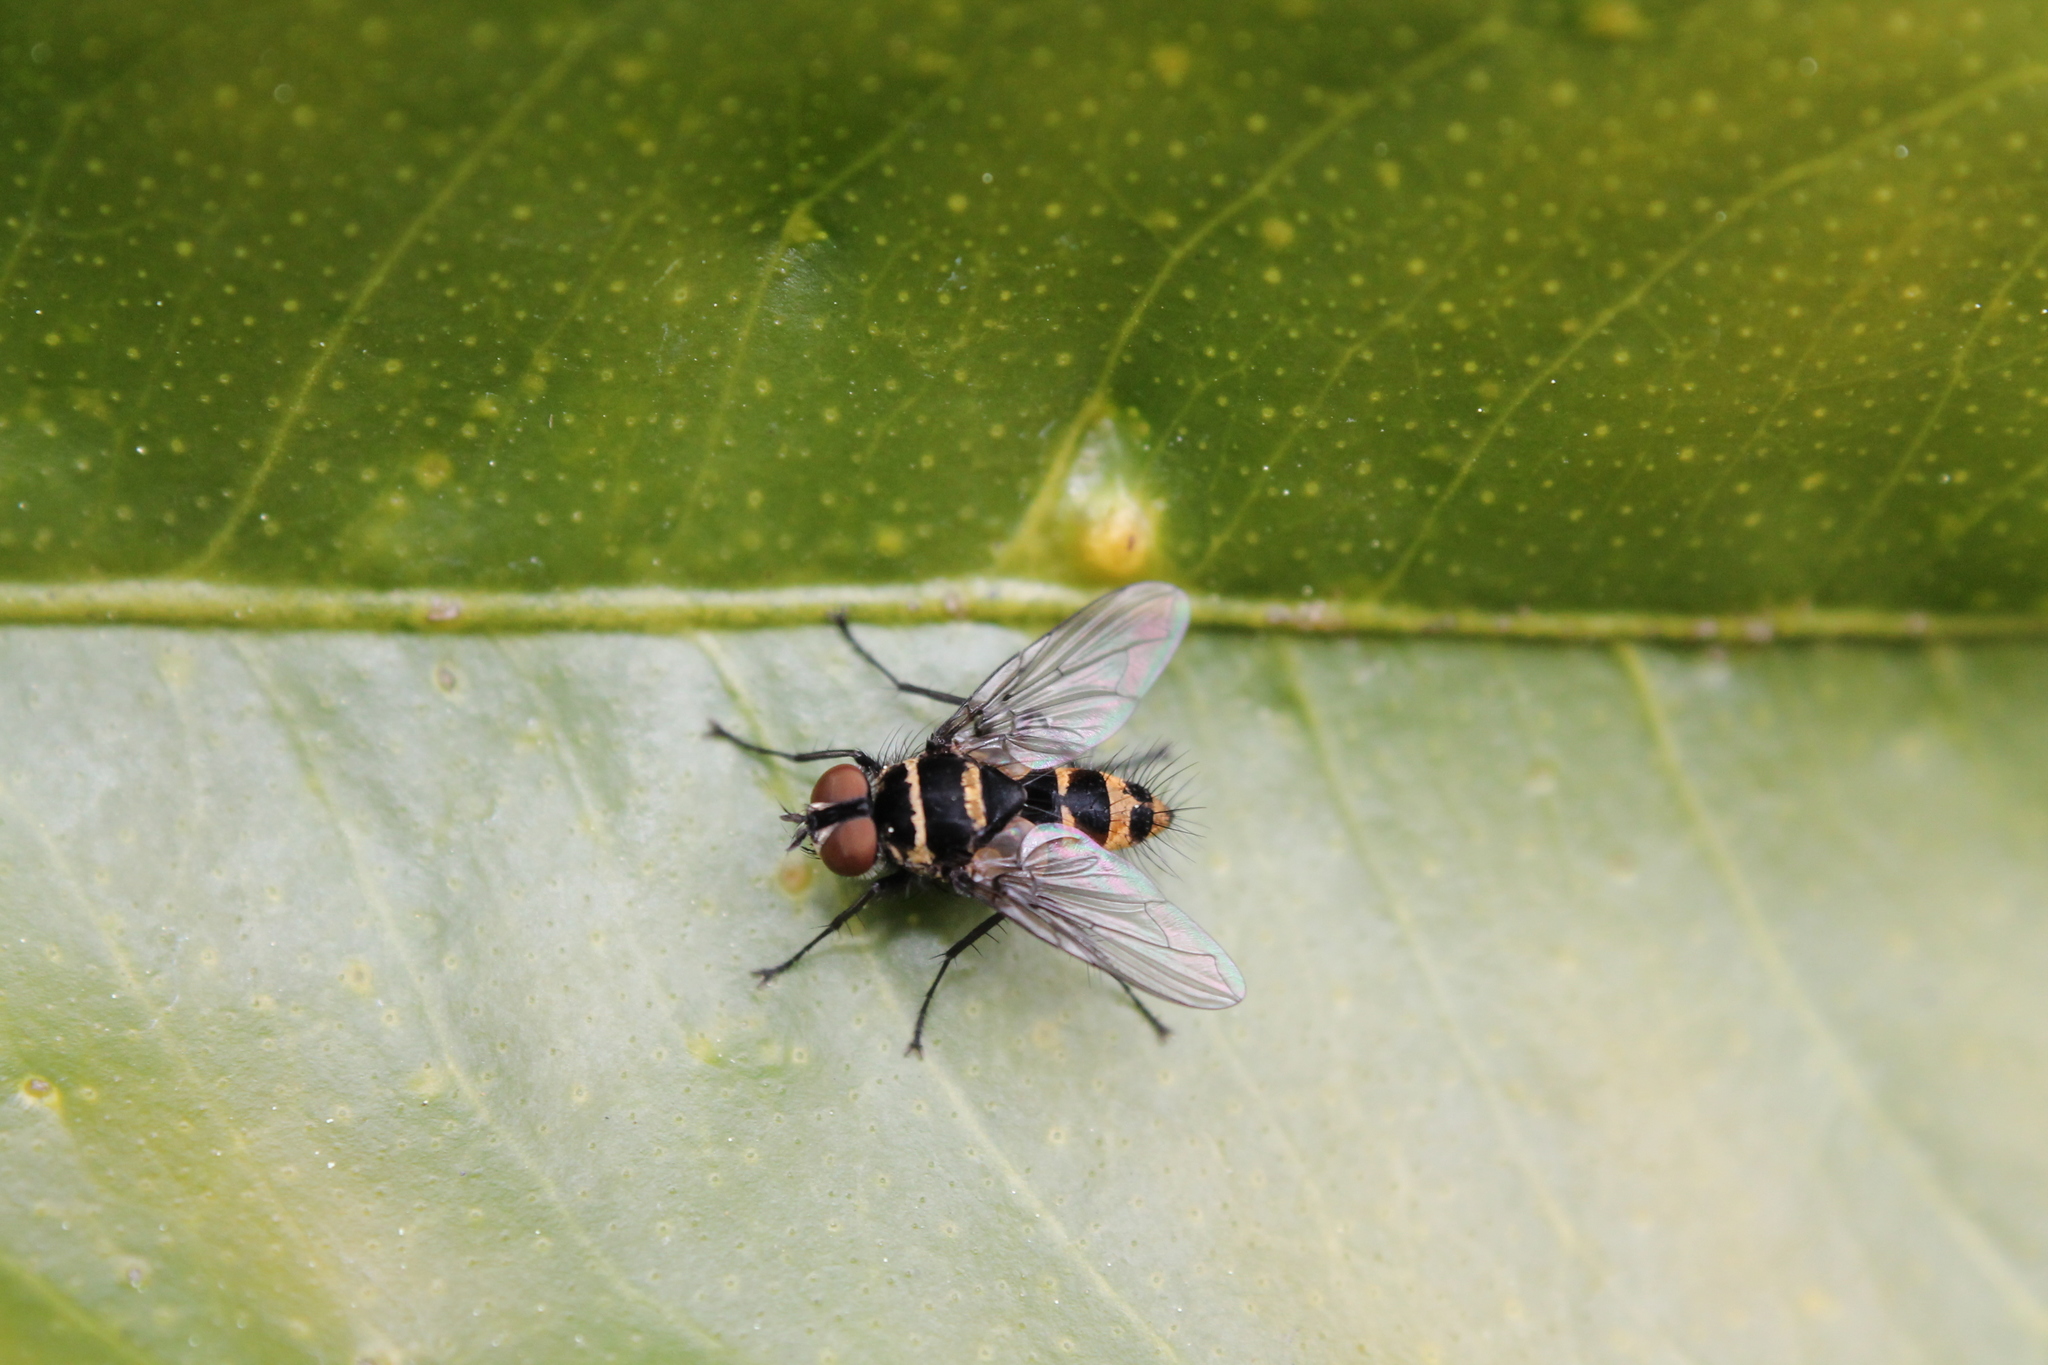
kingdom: Animalia
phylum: Arthropoda
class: Insecta
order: Diptera
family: Tachinidae
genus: Trigonospila
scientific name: Trigonospila brevifacies
